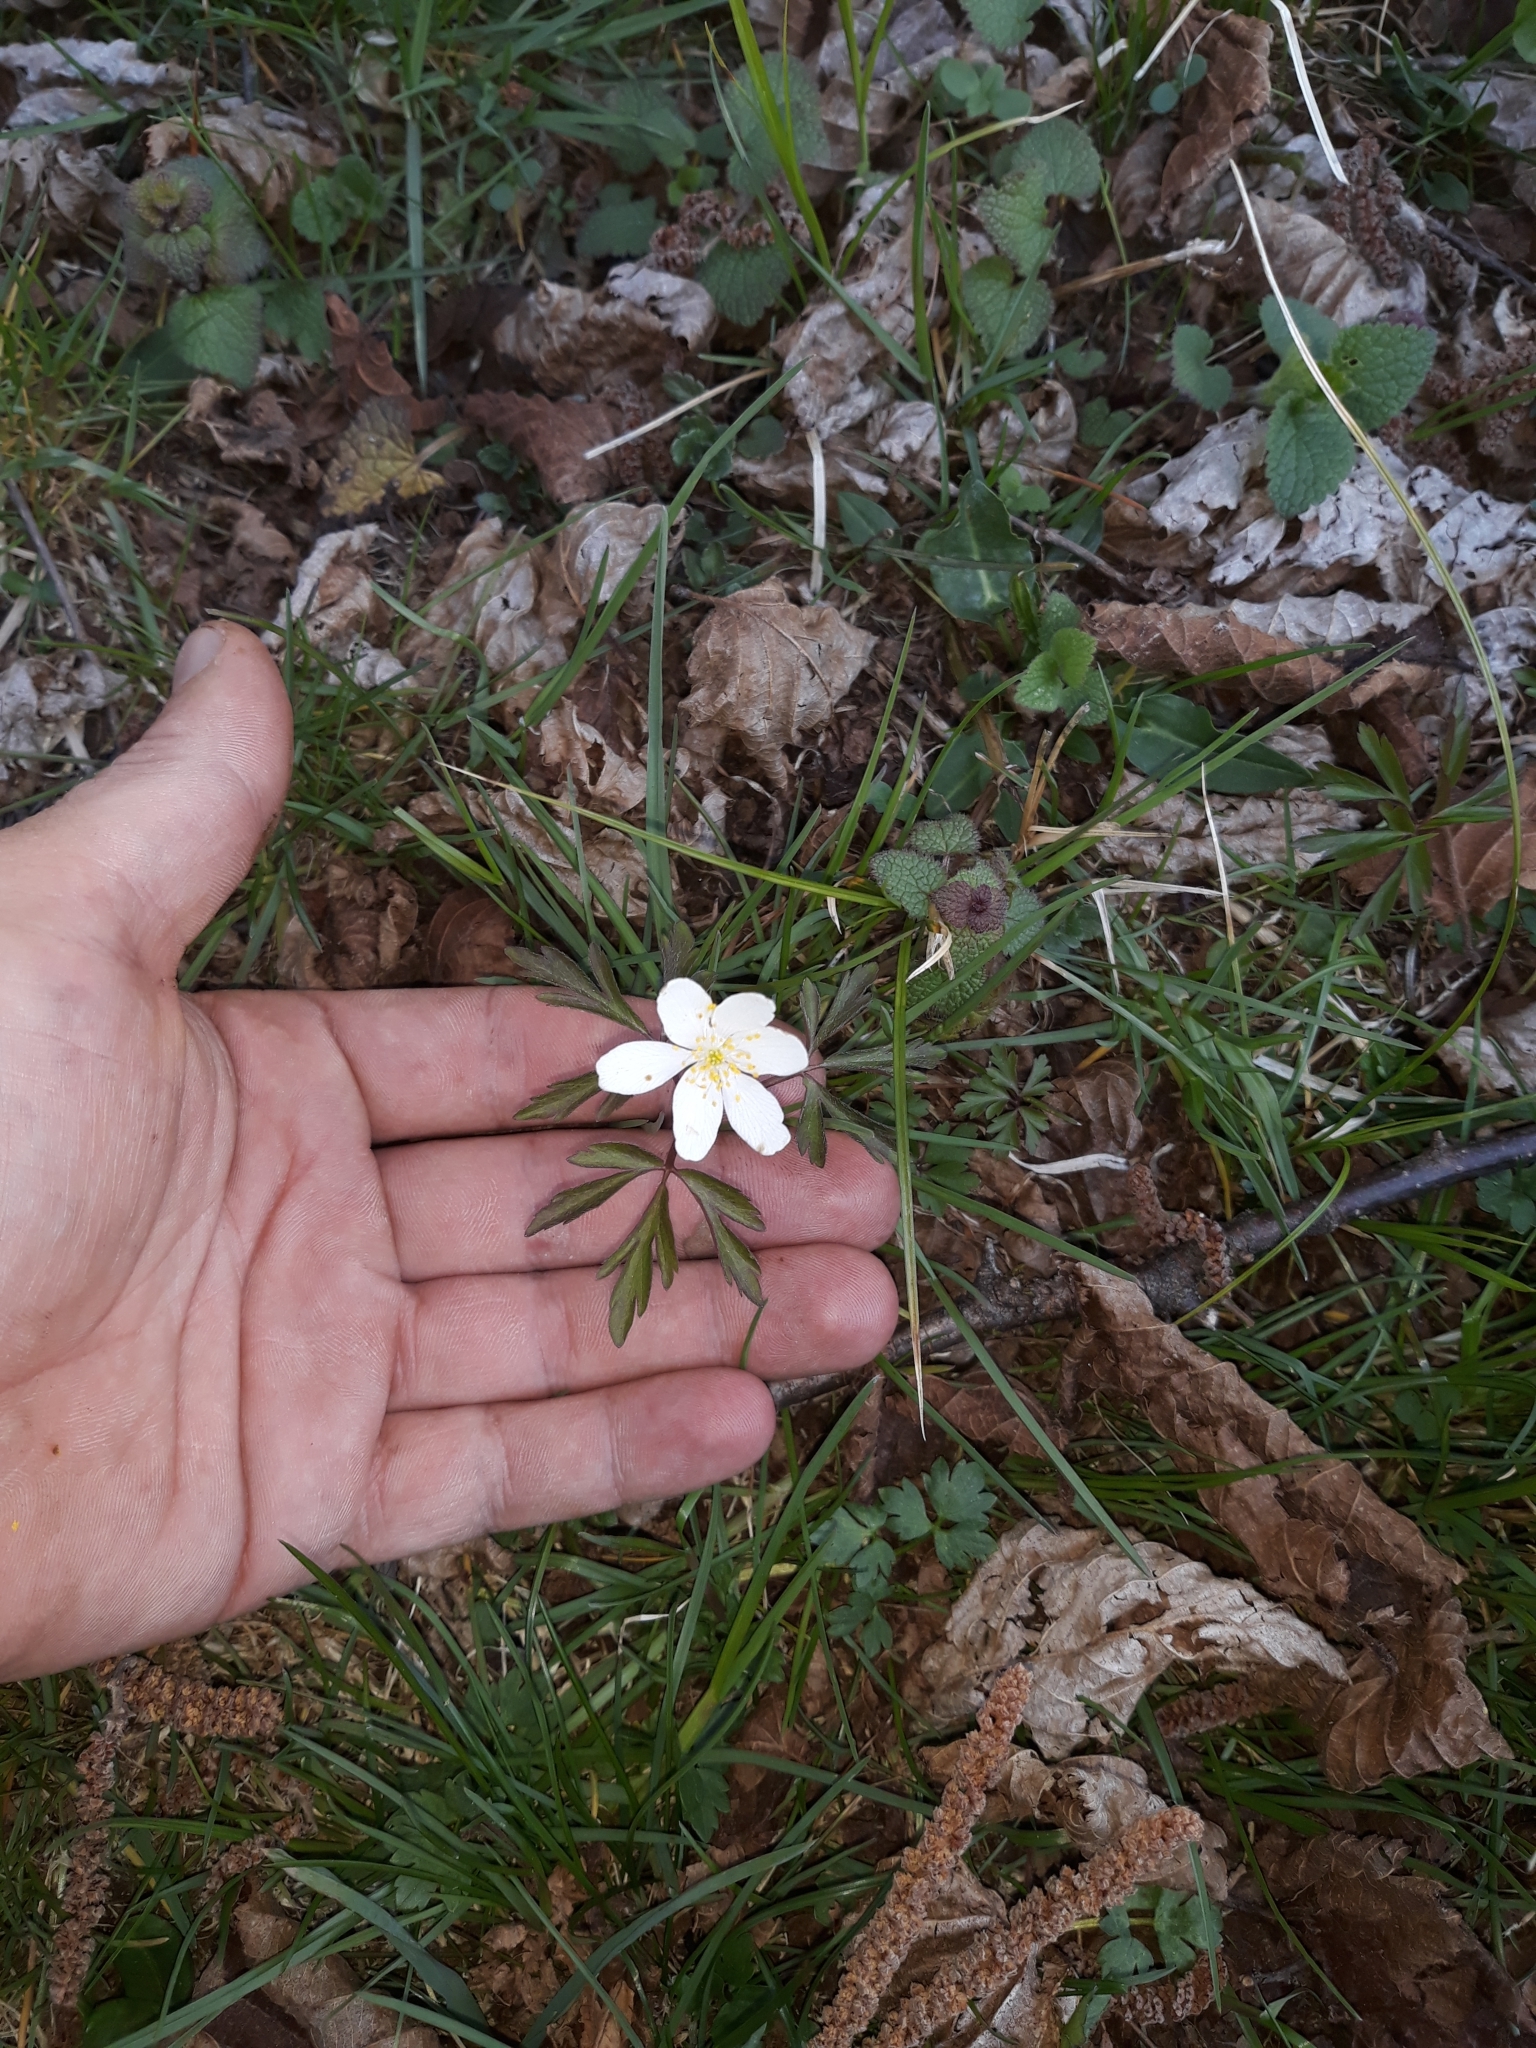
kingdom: Plantae
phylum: Tracheophyta
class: Magnoliopsida
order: Ranunculales
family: Ranunculaceae
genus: Anemone
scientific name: Anemone nemorosa
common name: Wood anemone
